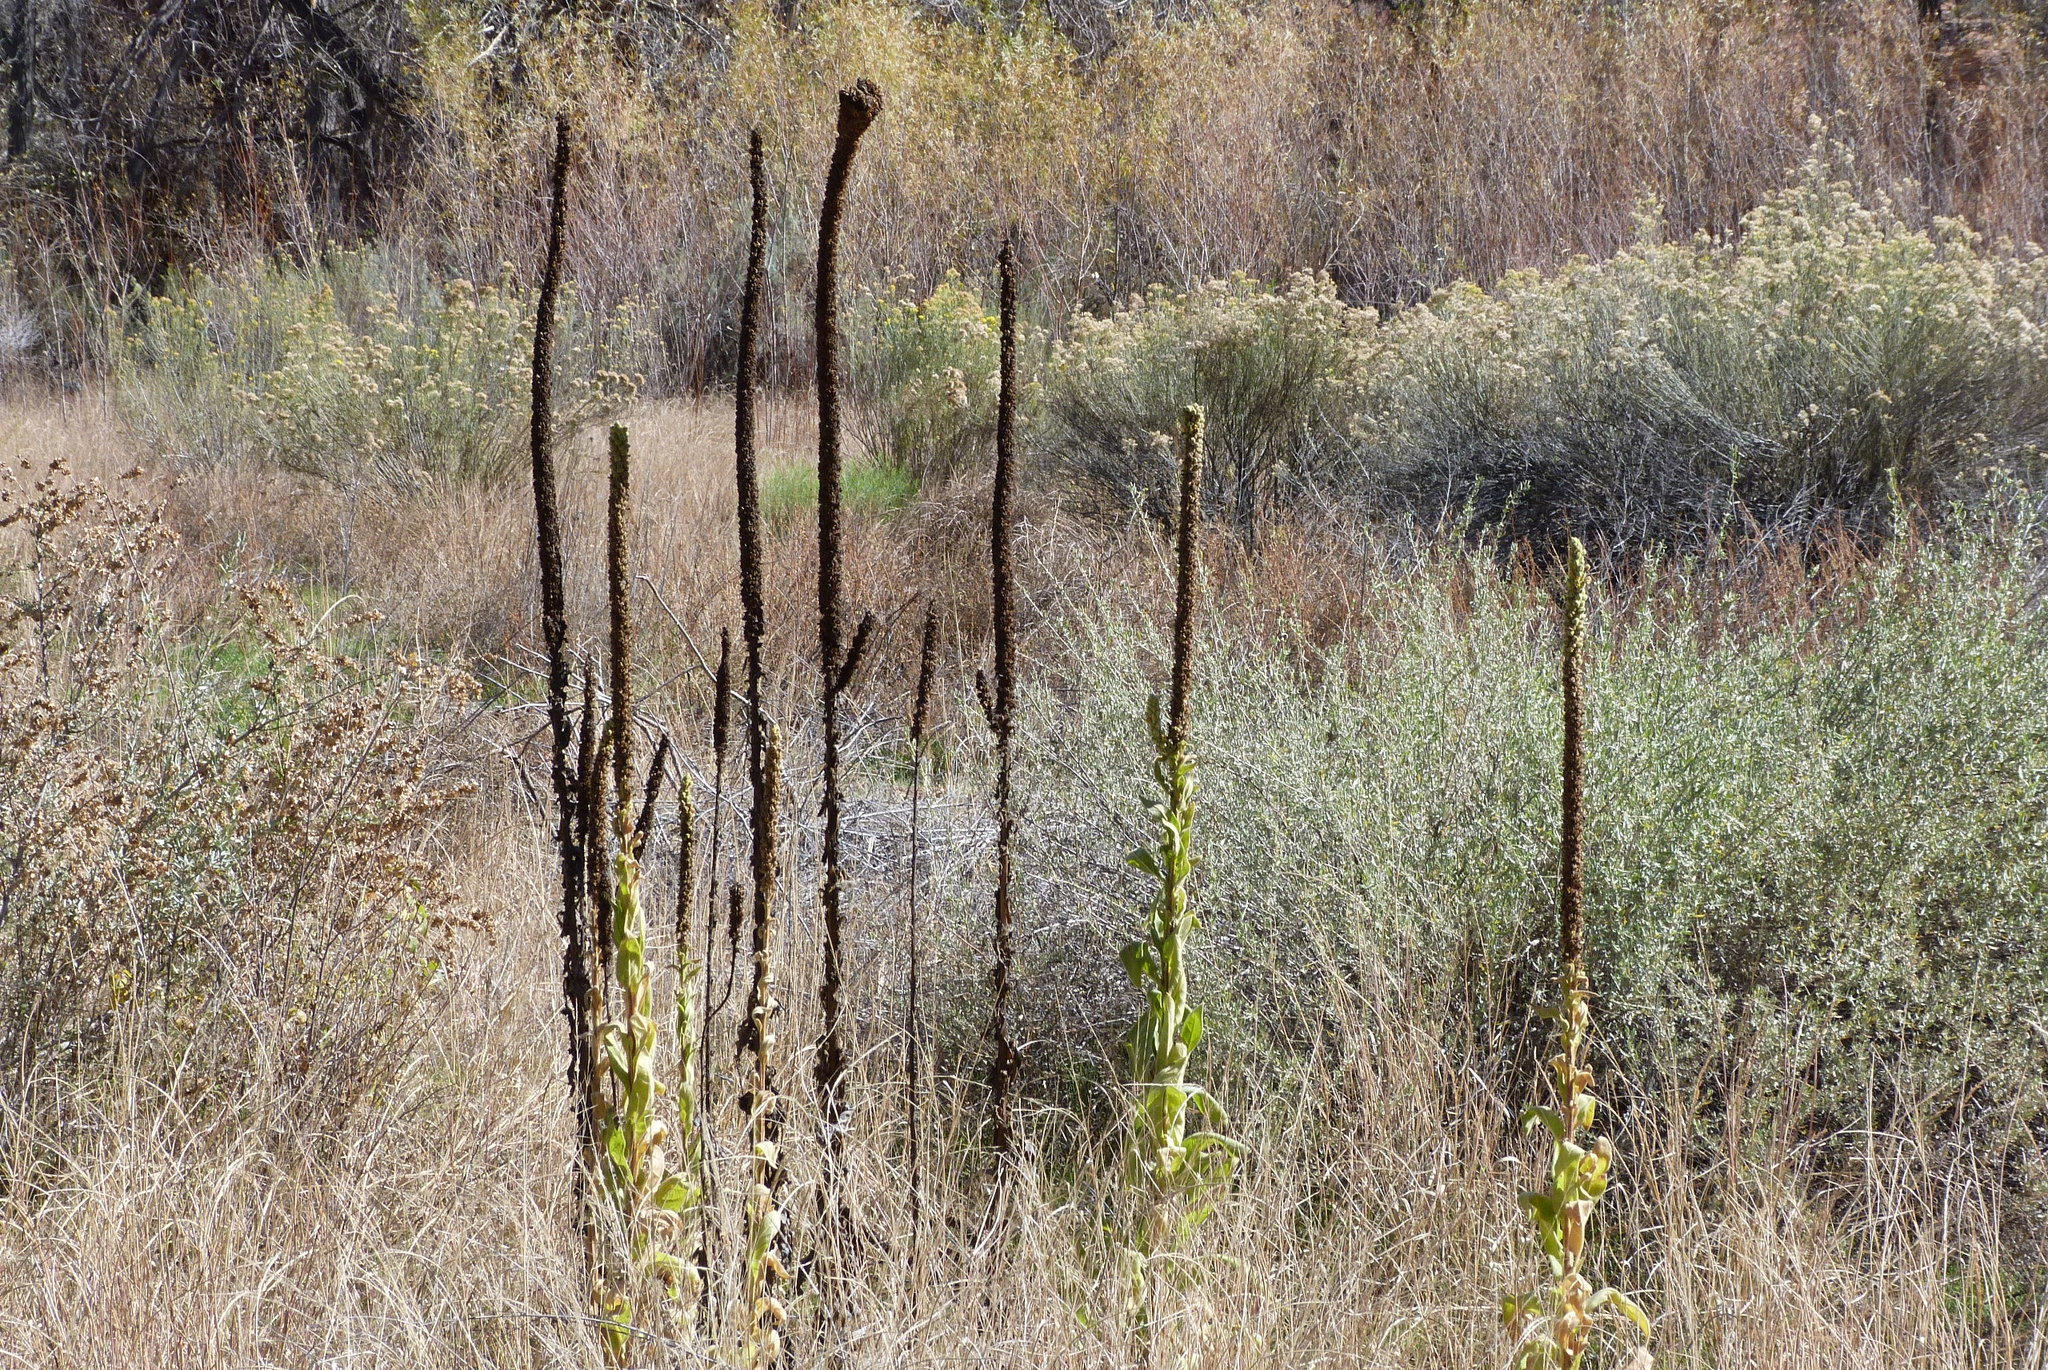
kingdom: Plantae
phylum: Tracheophyta
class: Magnoliopsida
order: Lamiales
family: Scrophulariaceae
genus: Verbascum
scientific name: Verbascum thapsus
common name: Common mullein
